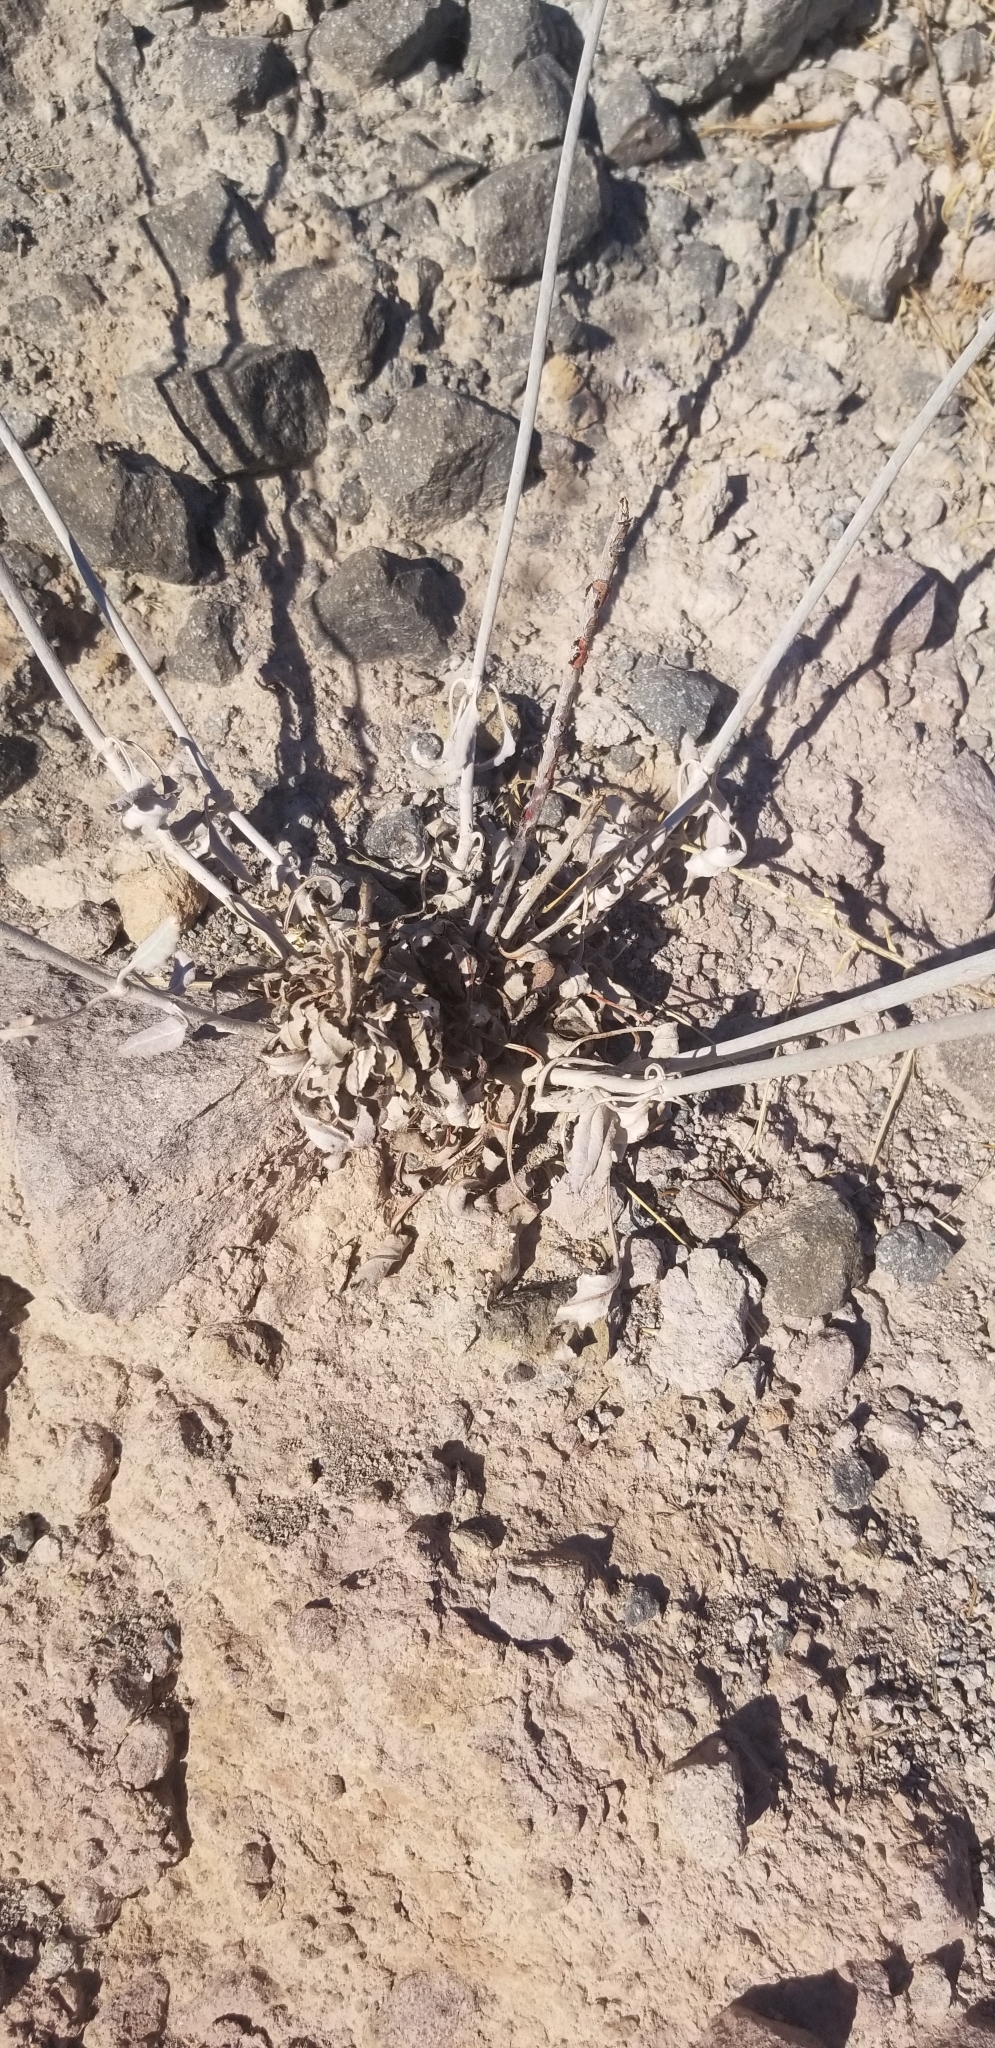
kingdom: Plantae
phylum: Tracheophyta
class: Magnoliopsida
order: Caryophyllales
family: Polygonaceae
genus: Eriogonum
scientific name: Eriogonum elongatum
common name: Long-stem wild buckwheat
